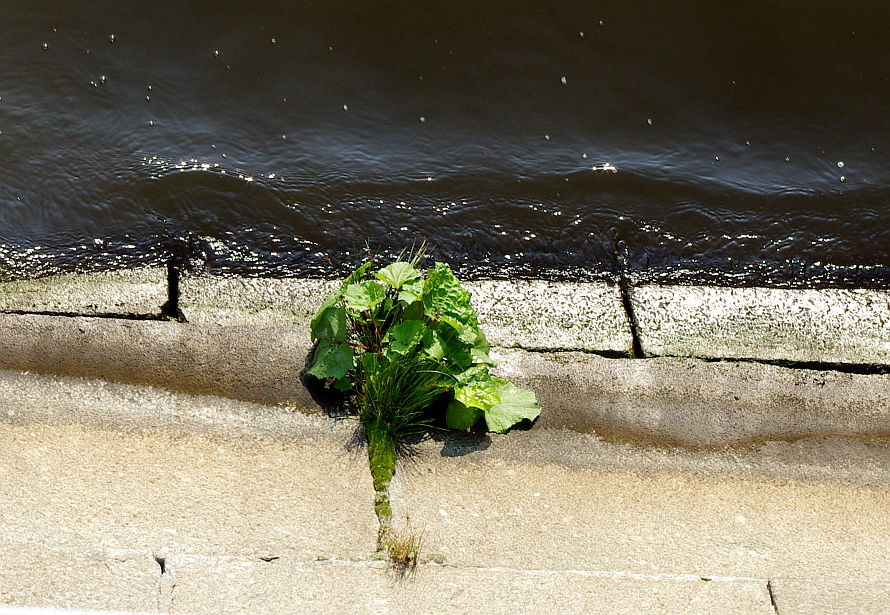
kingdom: Plantae
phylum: Tracheophyta
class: Magnoliopsida
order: Asterales
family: Asteraceae
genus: Tussilago
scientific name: Tussilago farfara
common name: Coltsfoot
